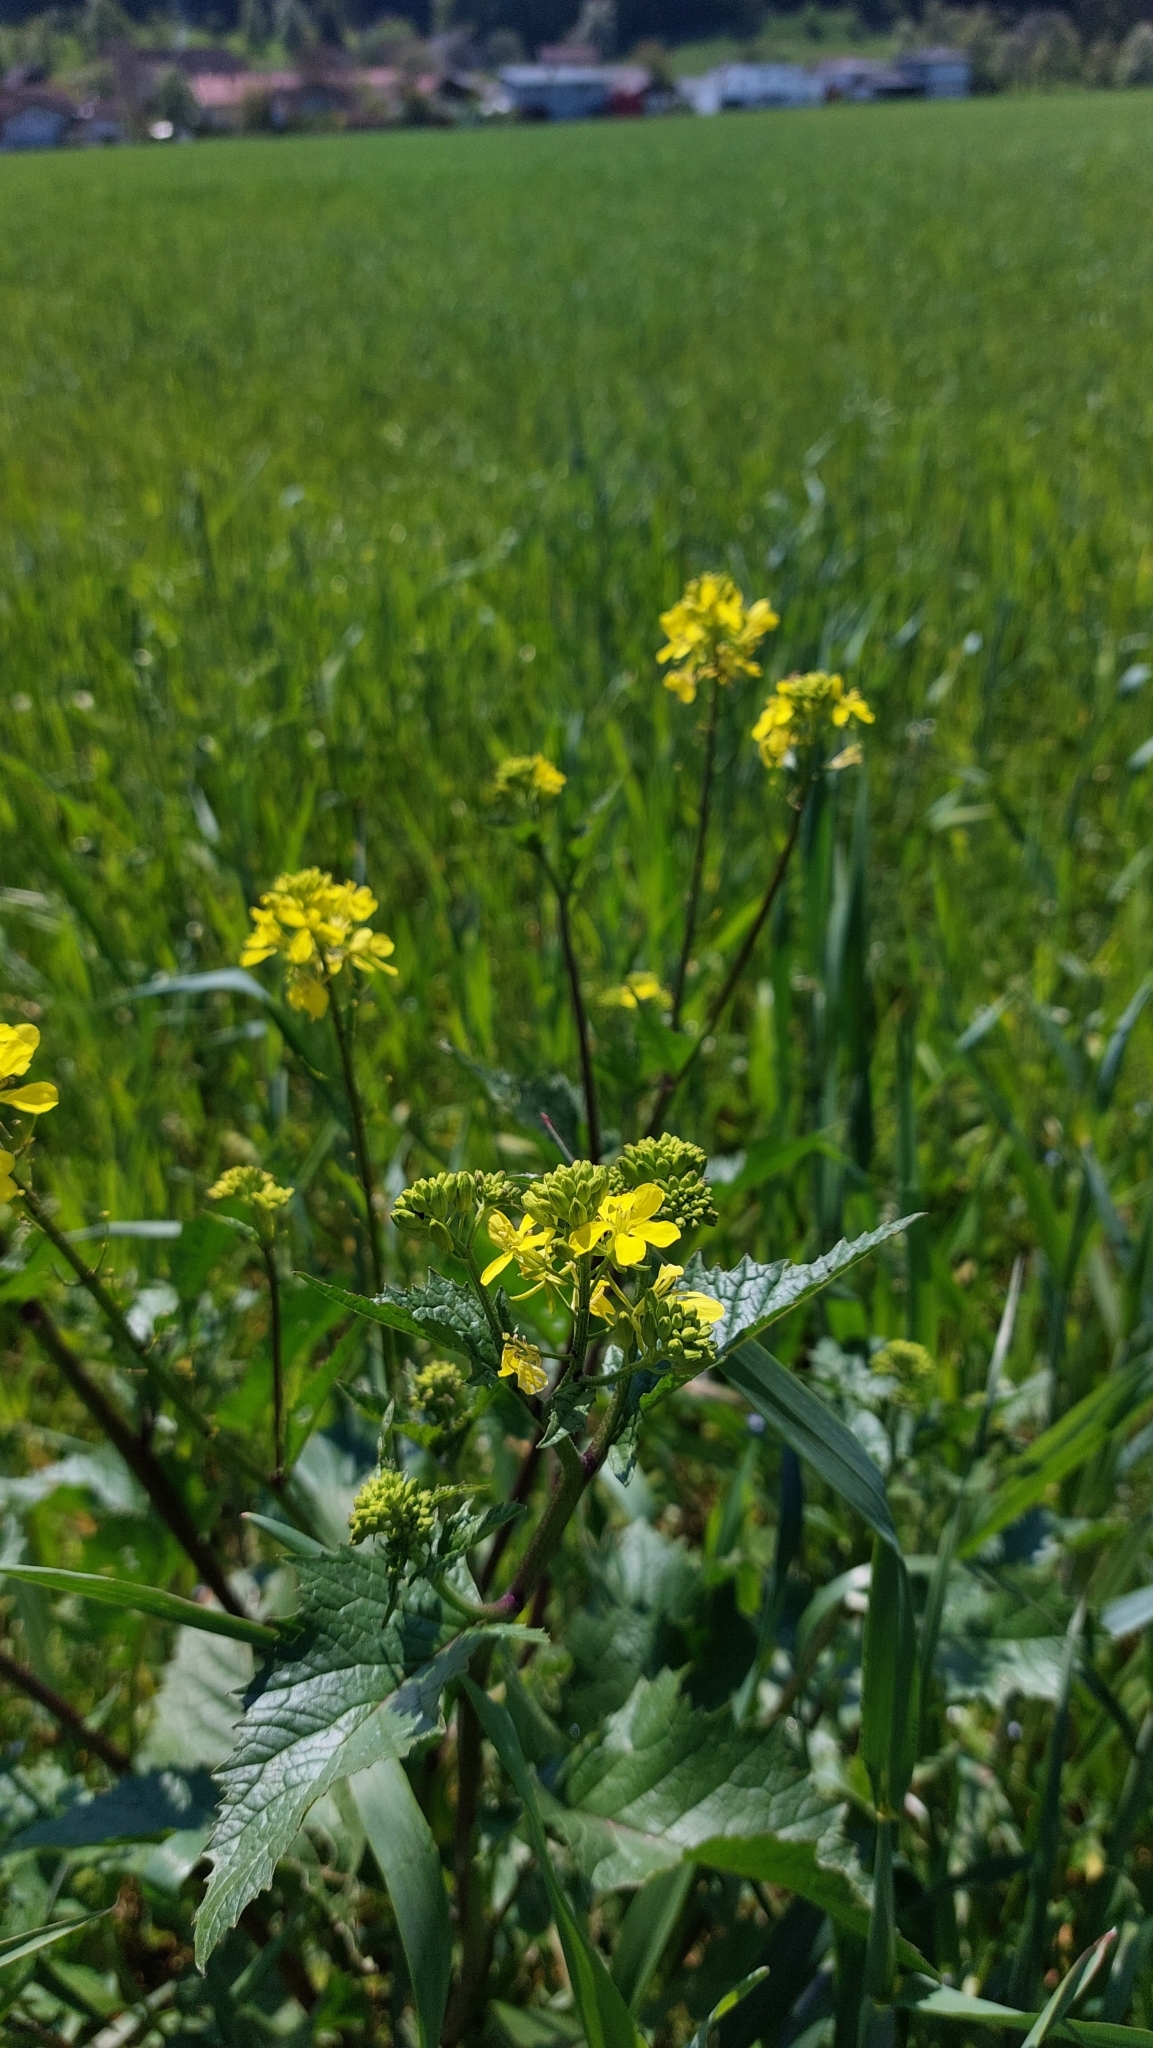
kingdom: Plantae
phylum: Tracheophyta
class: Magnoliopsida
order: Brassicales
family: Brassicaceae
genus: Sinapis
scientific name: Sinapis arvensis
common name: Charlock
